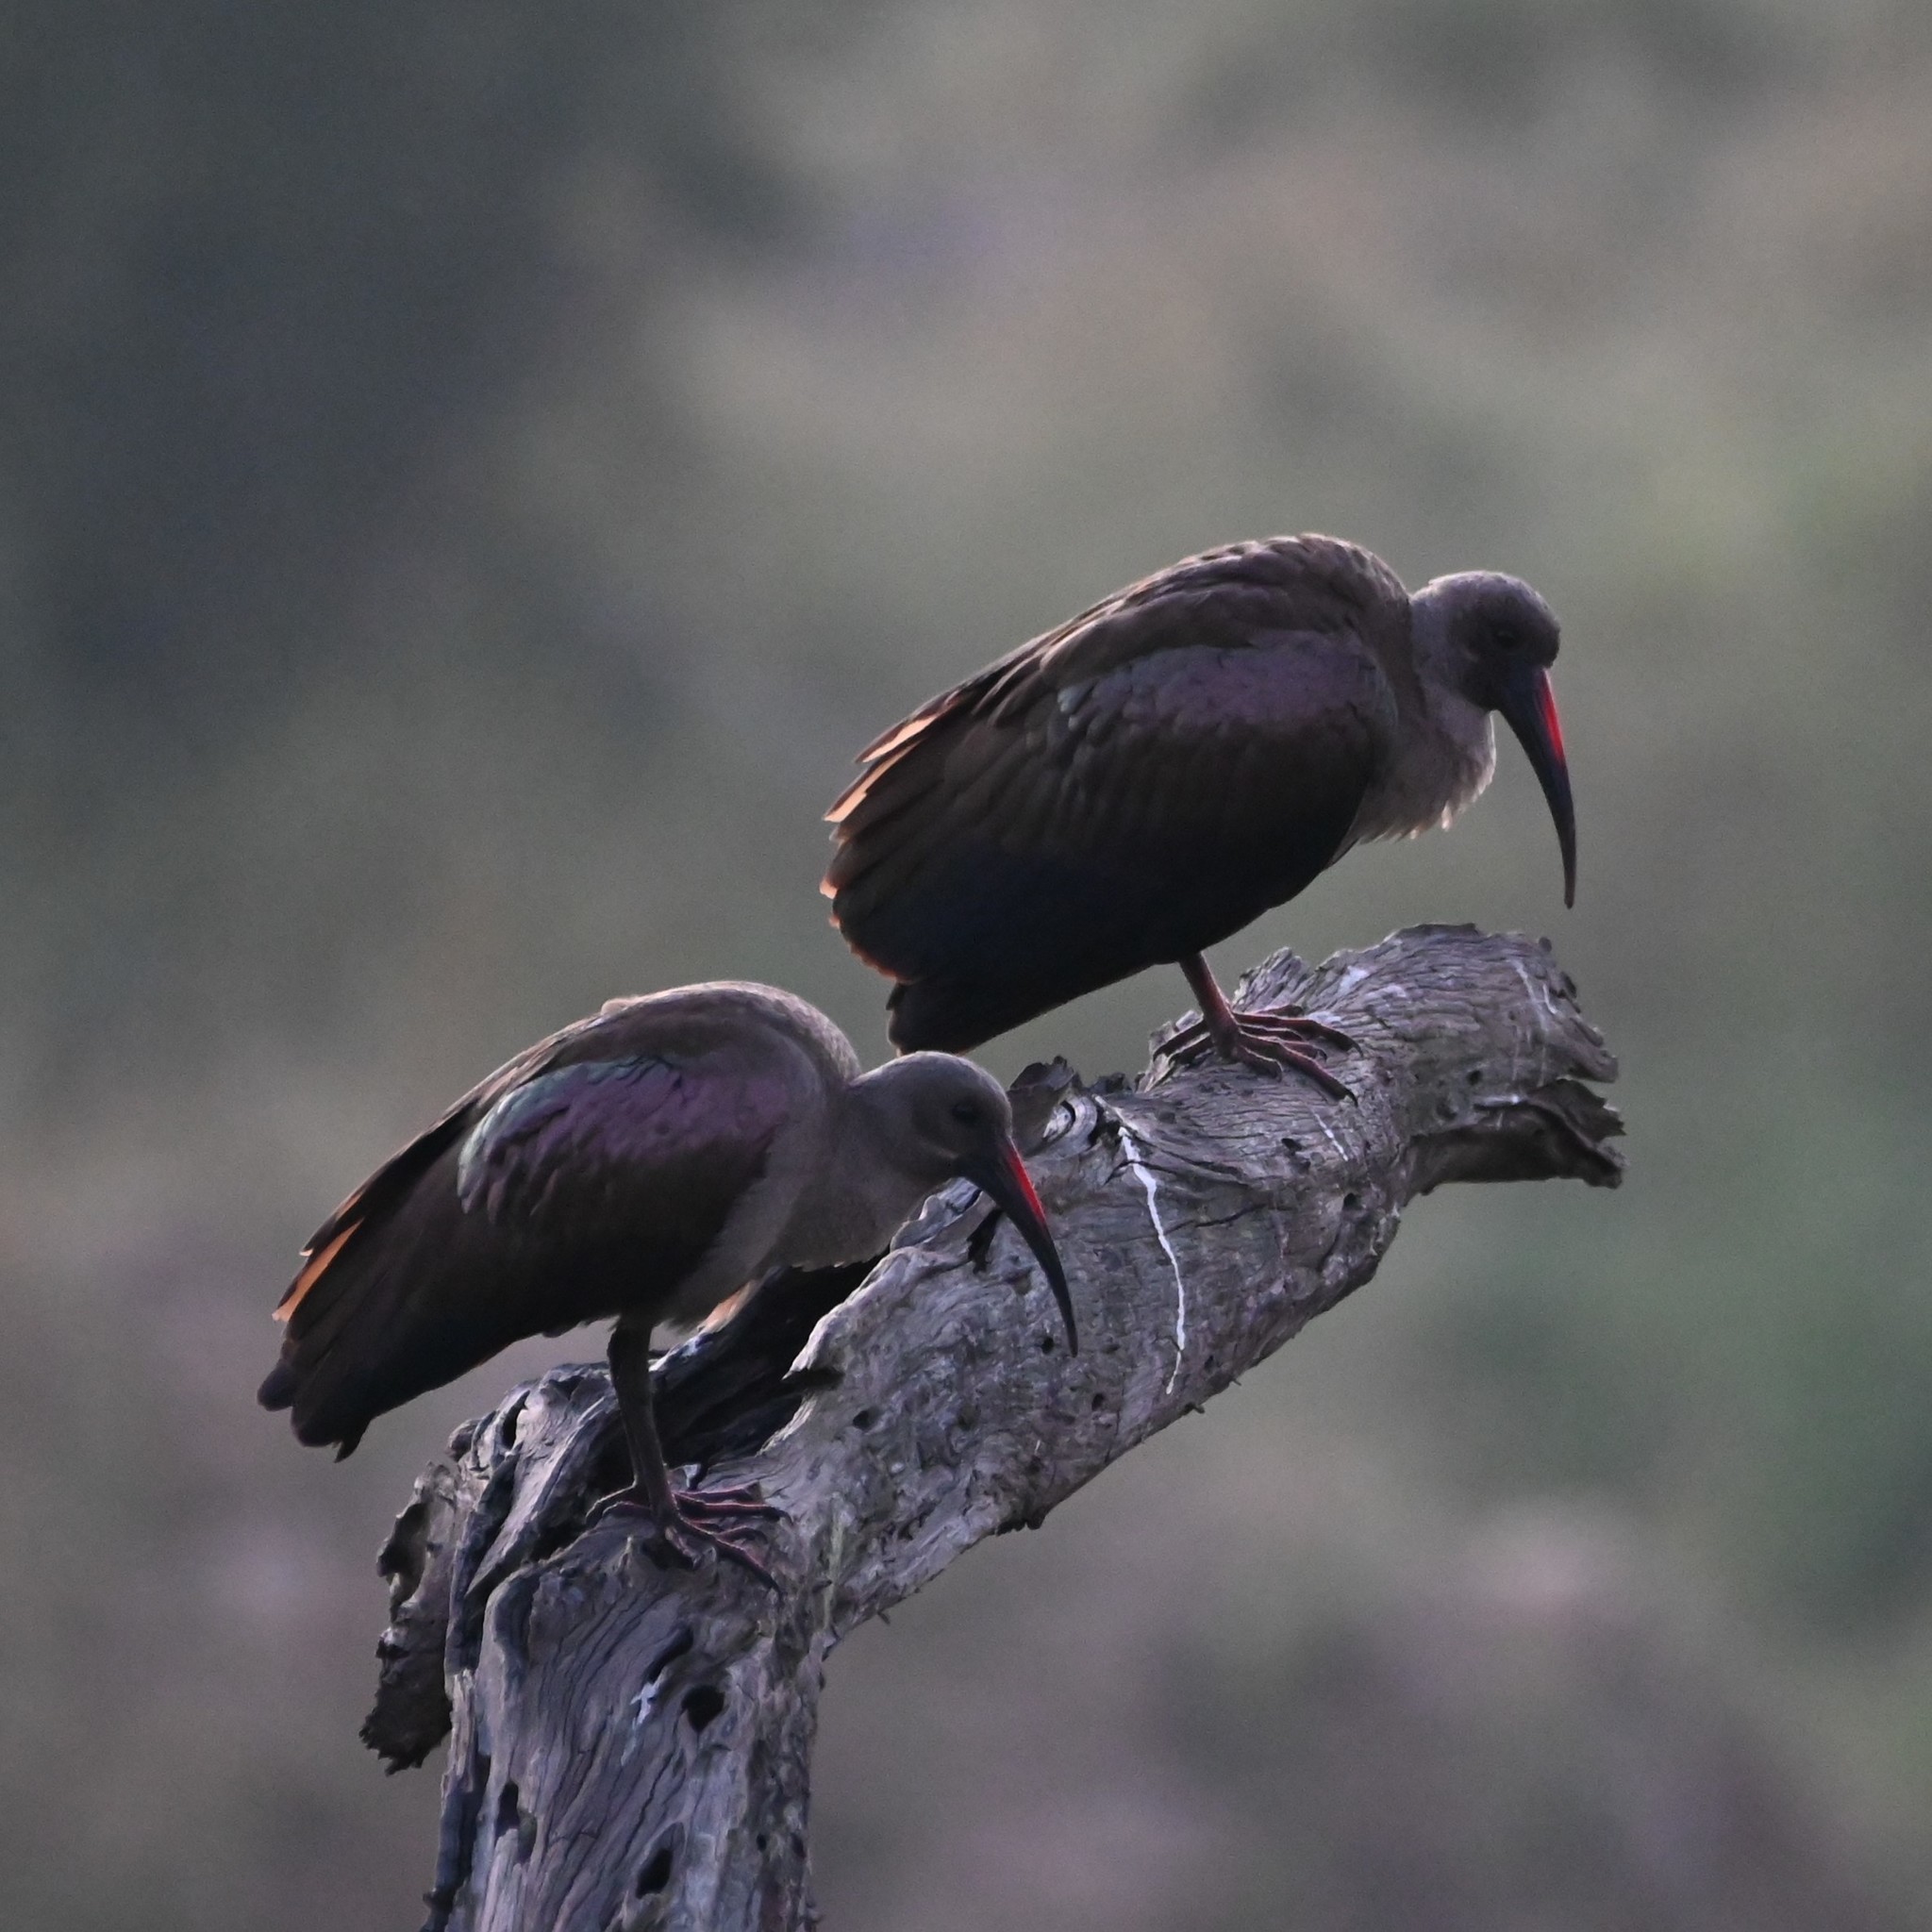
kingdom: Animalia
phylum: Chordata
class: Aves
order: Pelecaniformes
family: Threskiornithidae
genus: Bostrychia
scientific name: Bostrychia hagedash
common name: Hadada ibis
